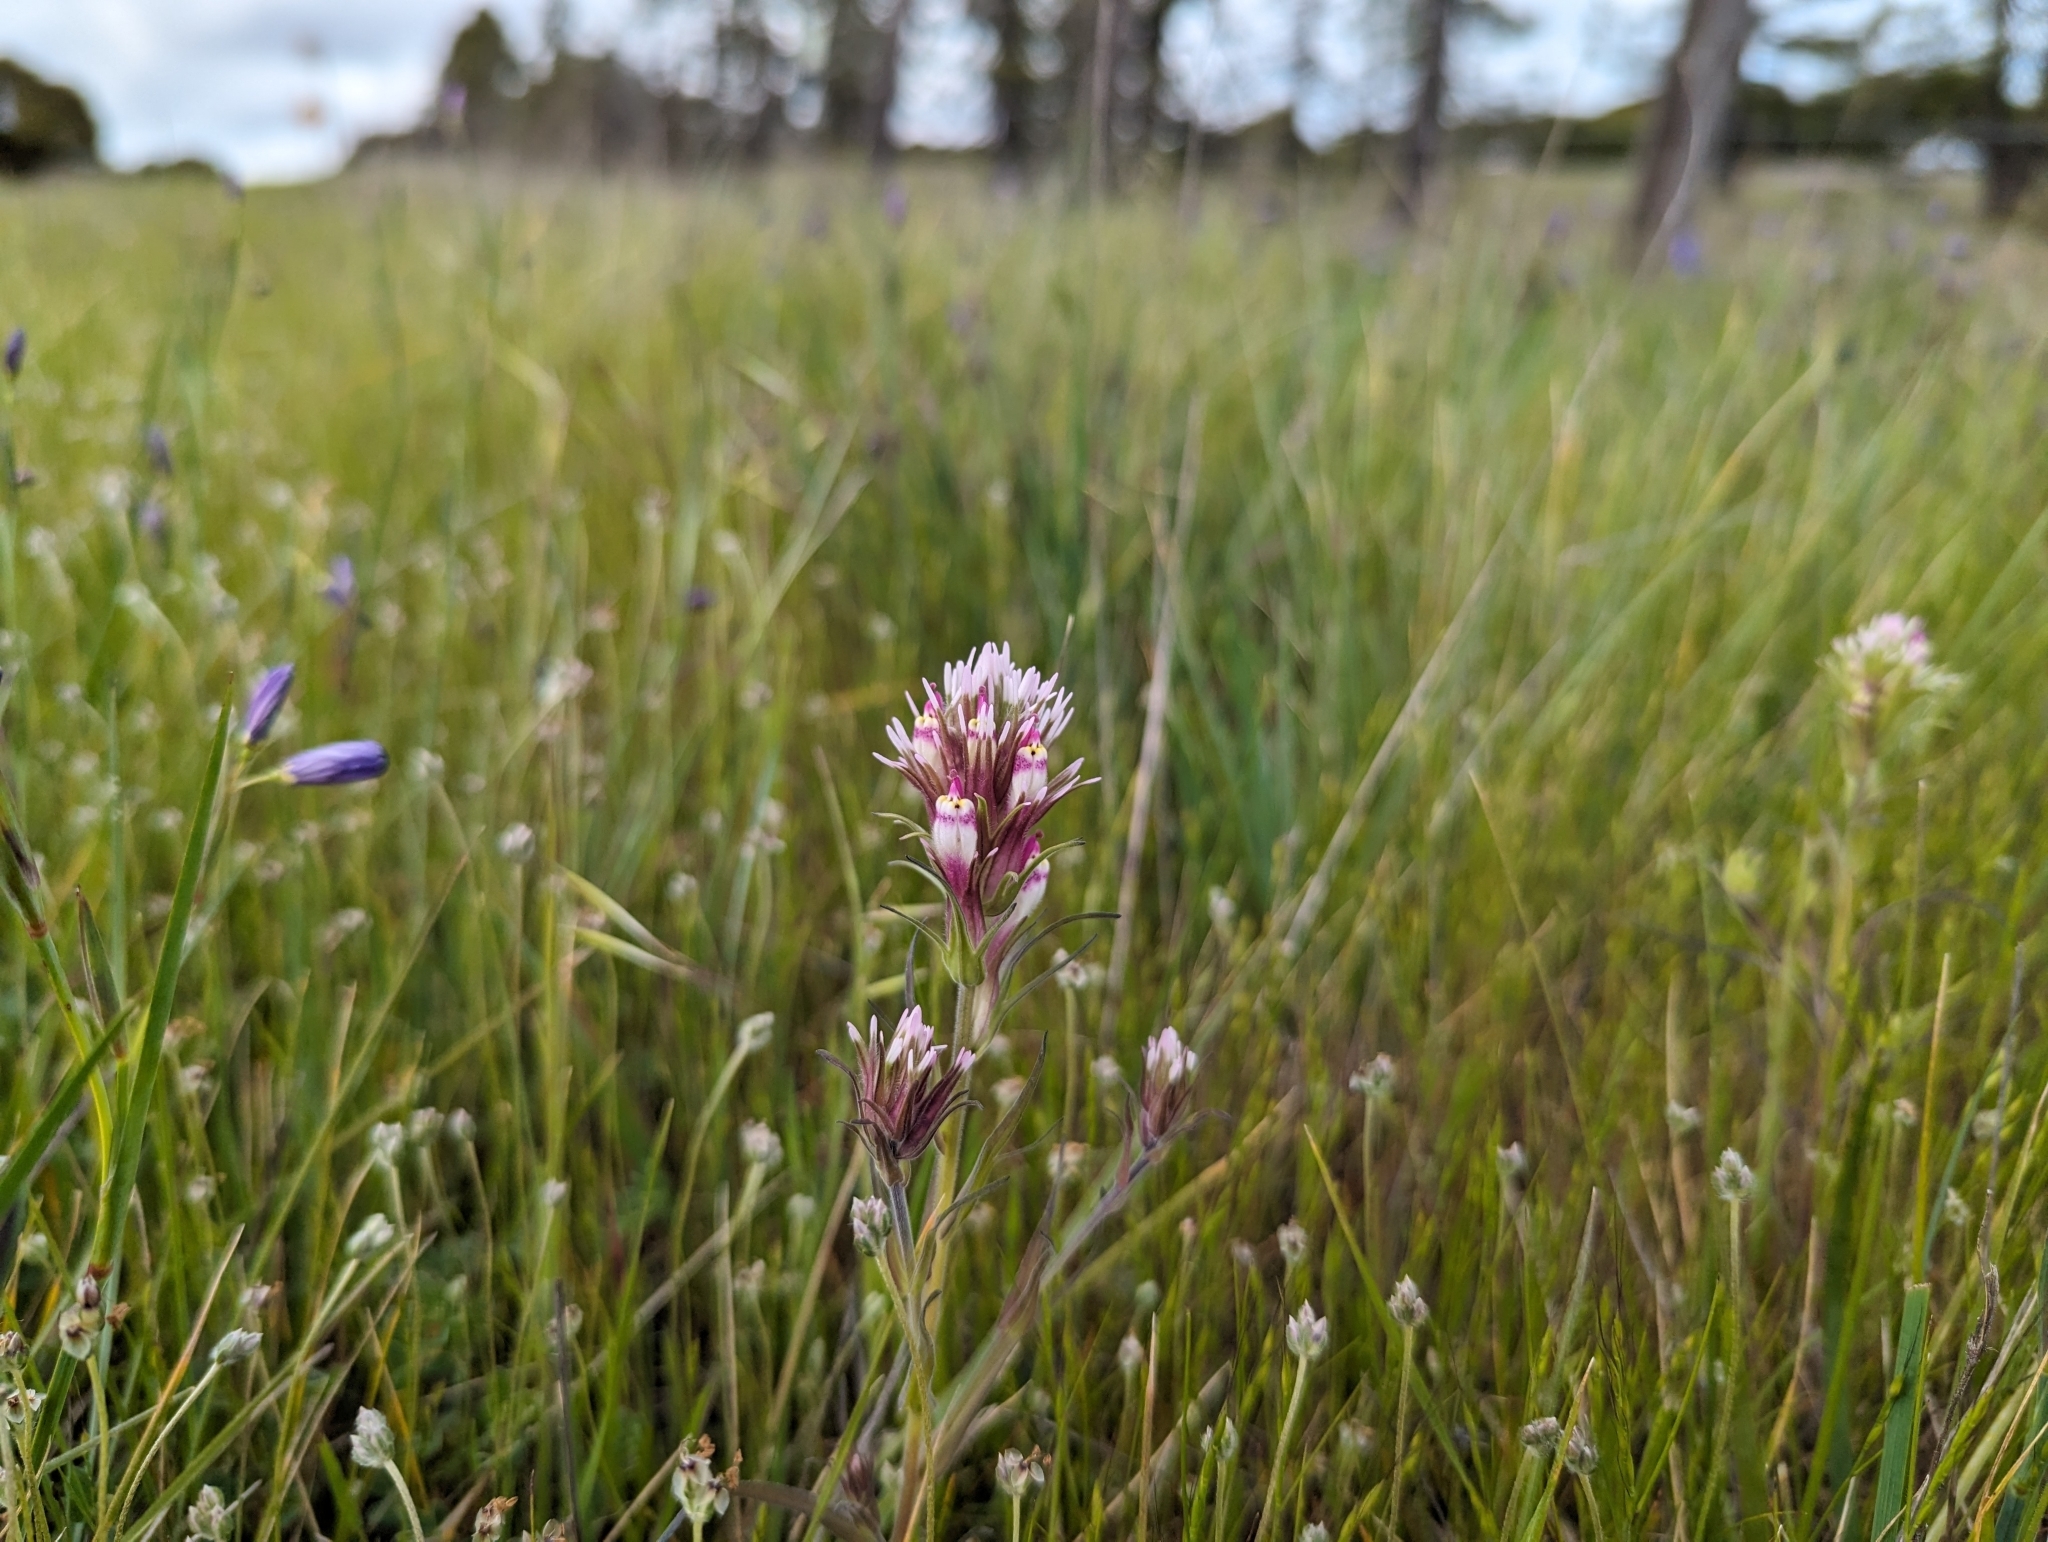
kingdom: Plantae
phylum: Tracheophyta
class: Magnoliopsida
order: Lamiales
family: Orobanchaceae
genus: Castilleja
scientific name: Castilleja densiflora
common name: Dense-flower indian paintbrush
